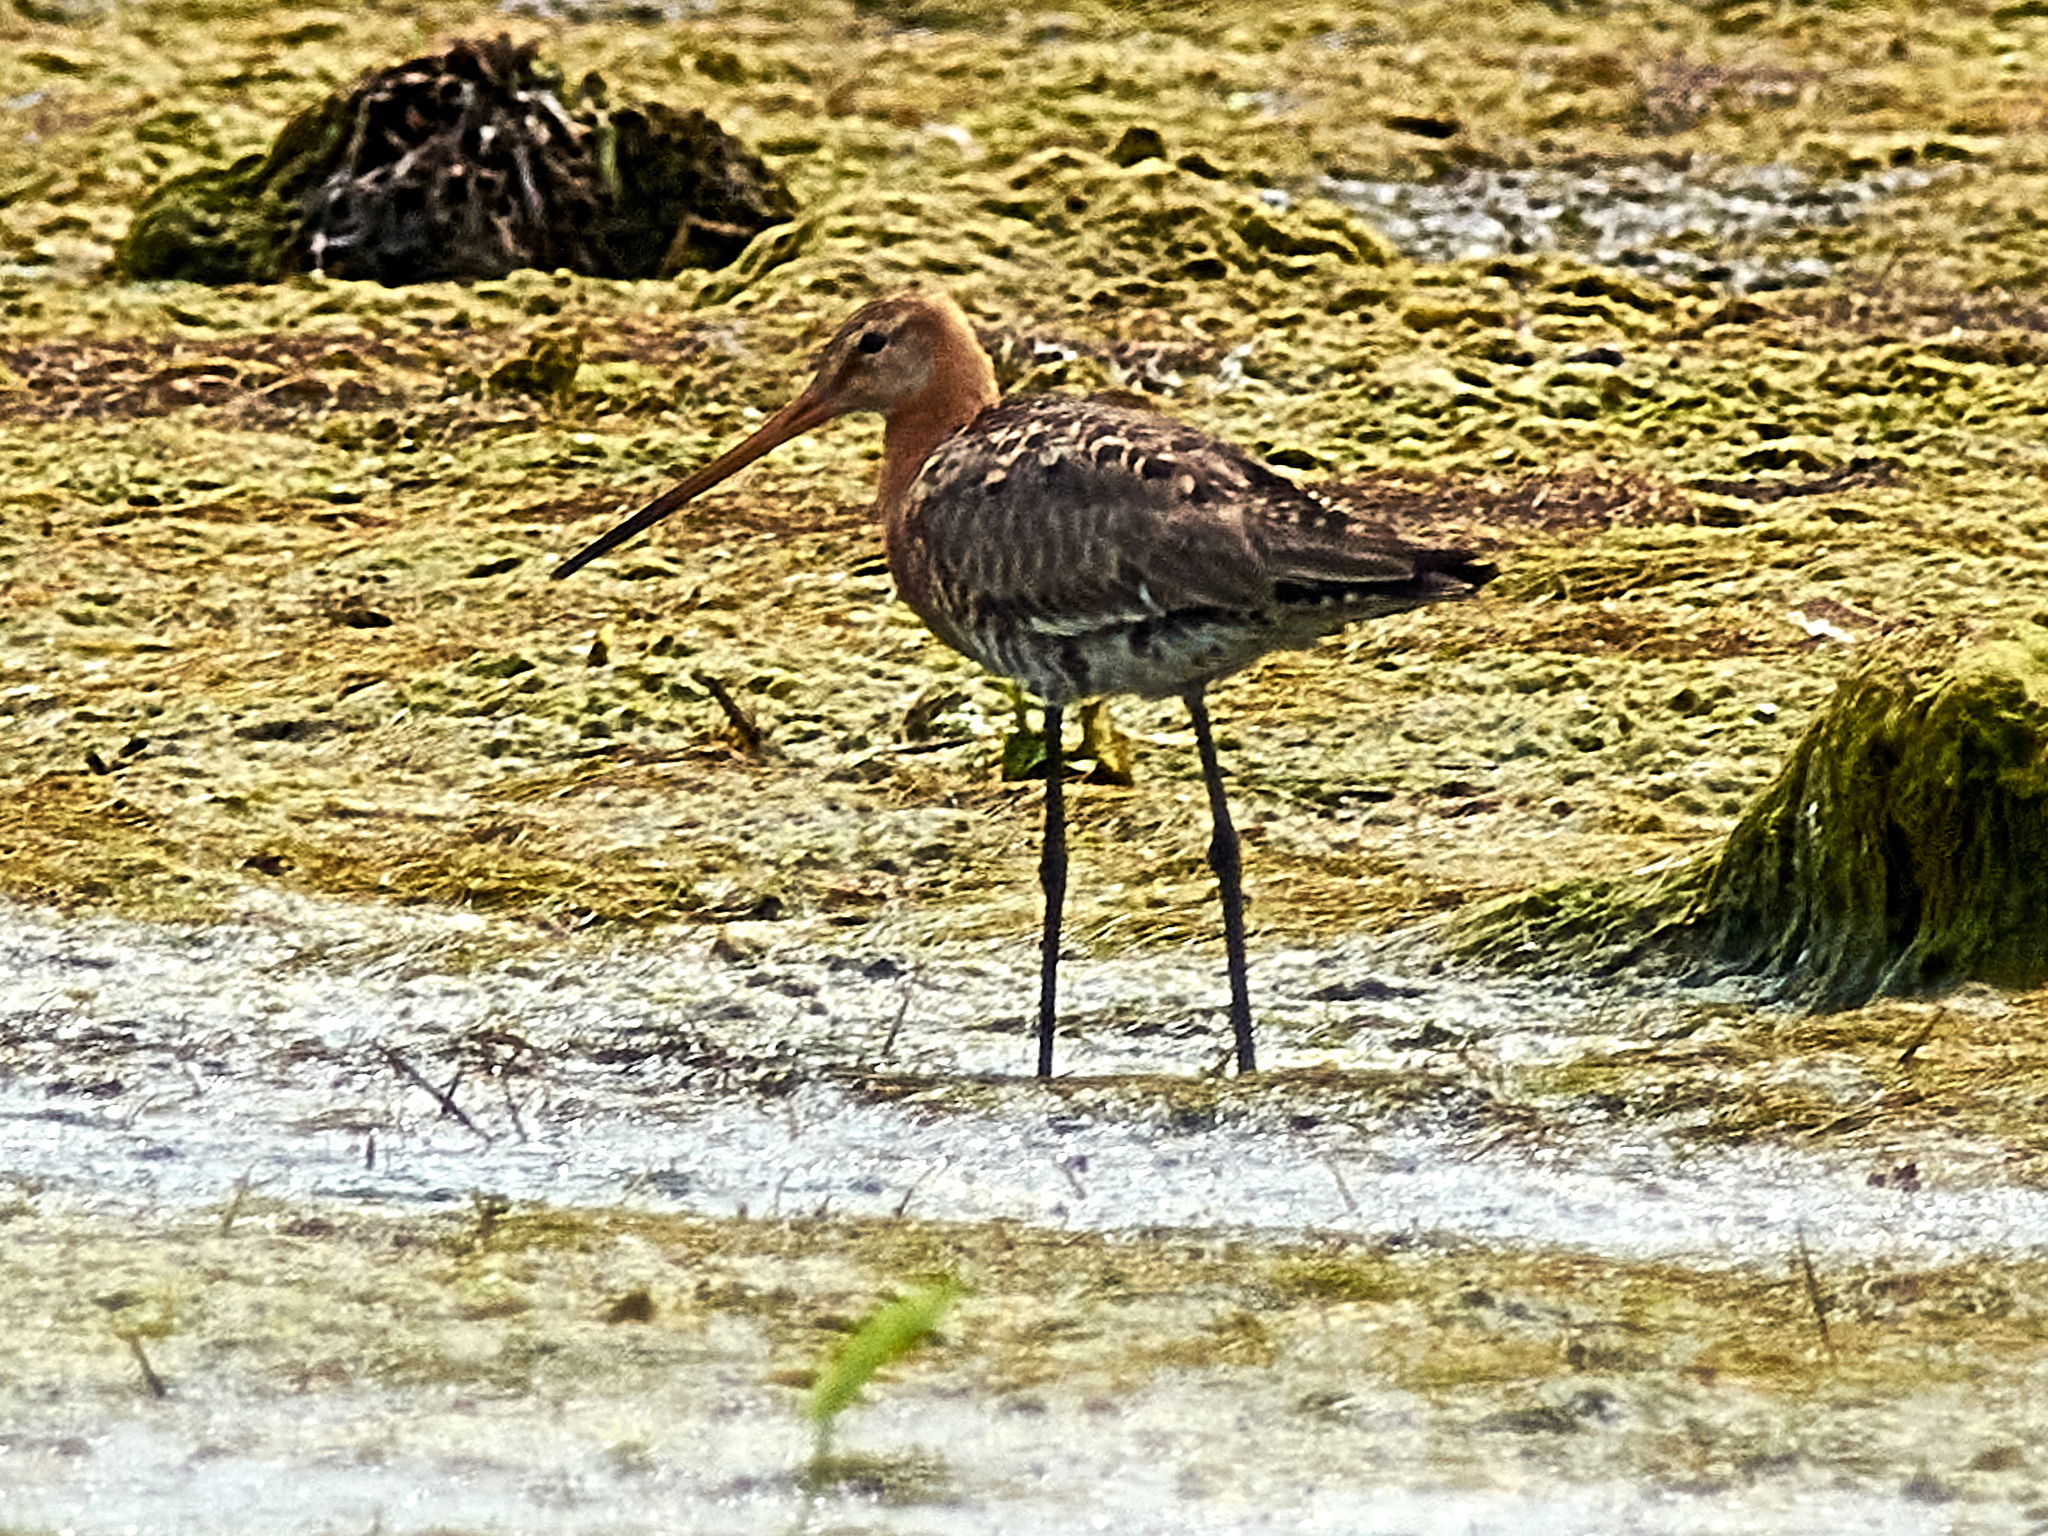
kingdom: Animalia
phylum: Chordata
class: Aves
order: Charadriiformes
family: Scolopacidae
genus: Limosa
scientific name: Limosa limosa
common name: Black-tailed godwit
